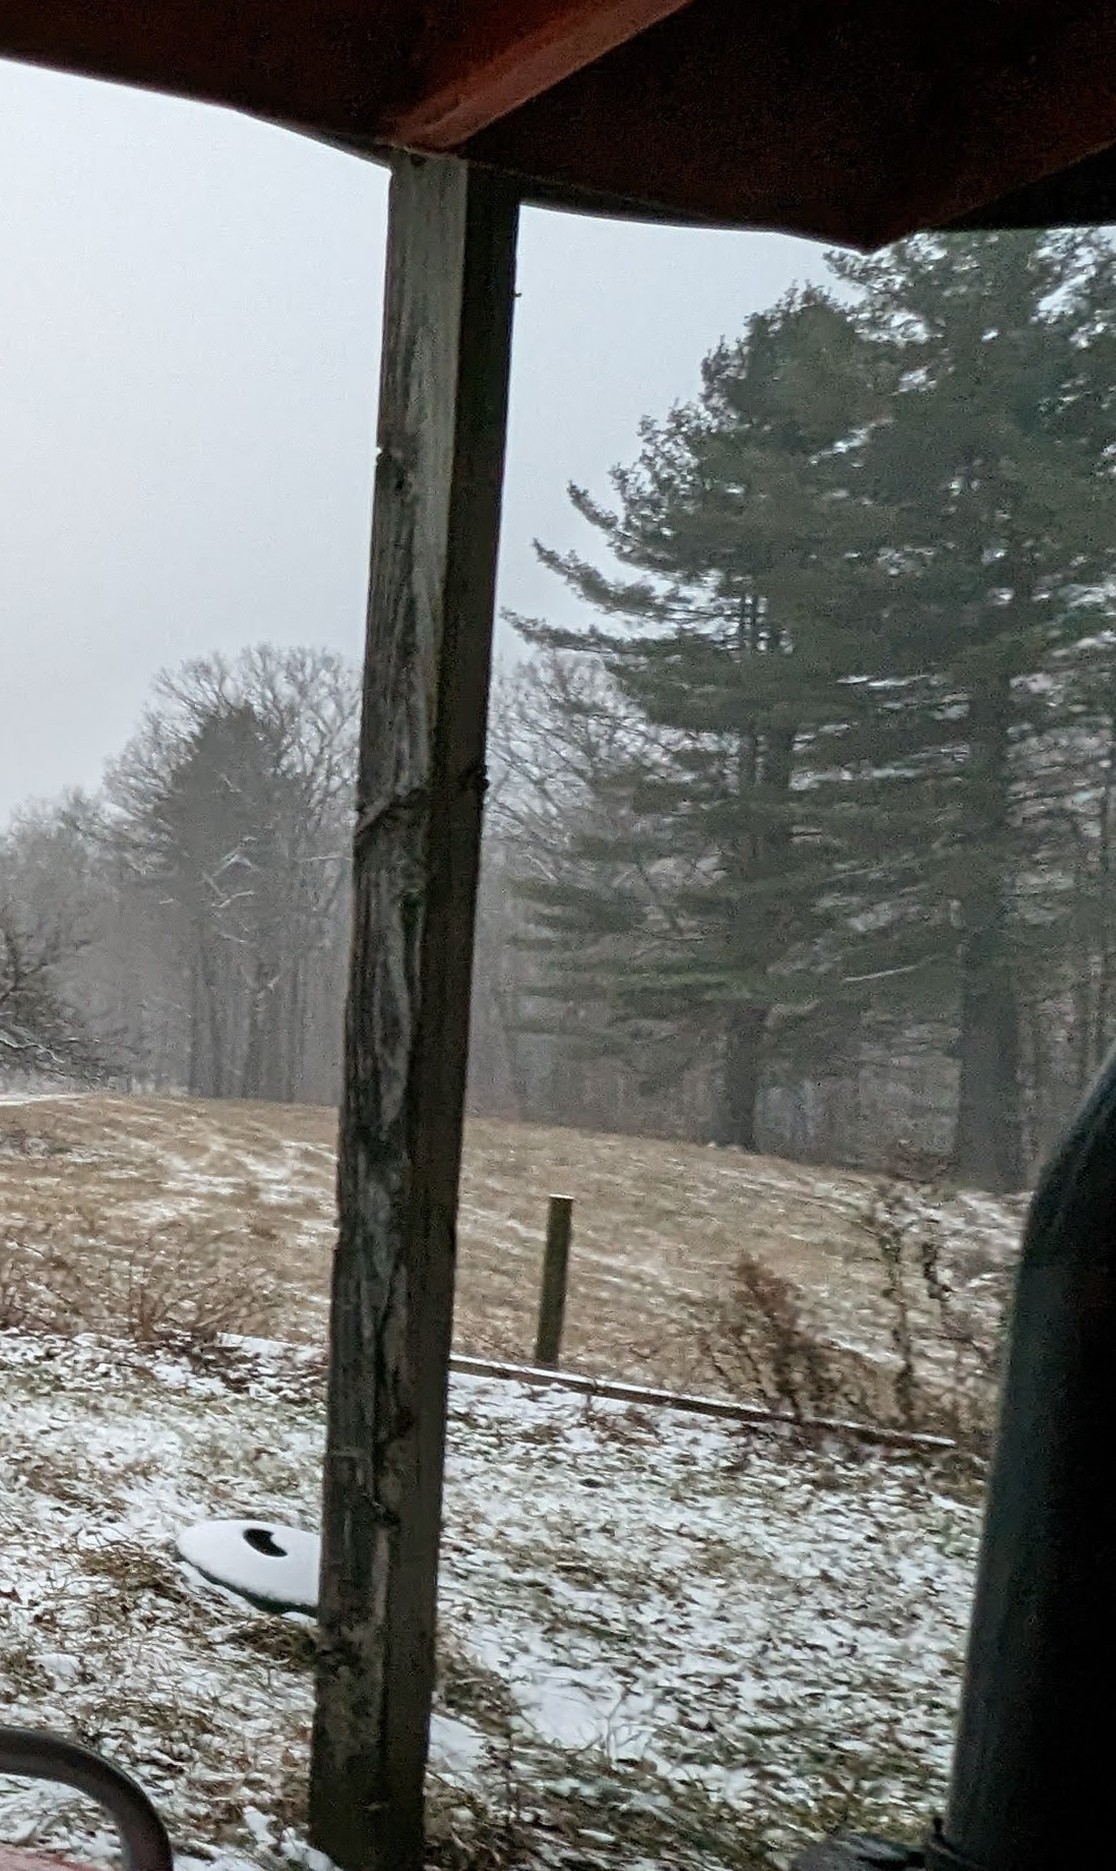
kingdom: Plantae
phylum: Tracheophyta
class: Pinopsida
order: Pinales
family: Pinaceae
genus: Pinus
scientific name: Pinus strobus
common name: Weymouth pine
